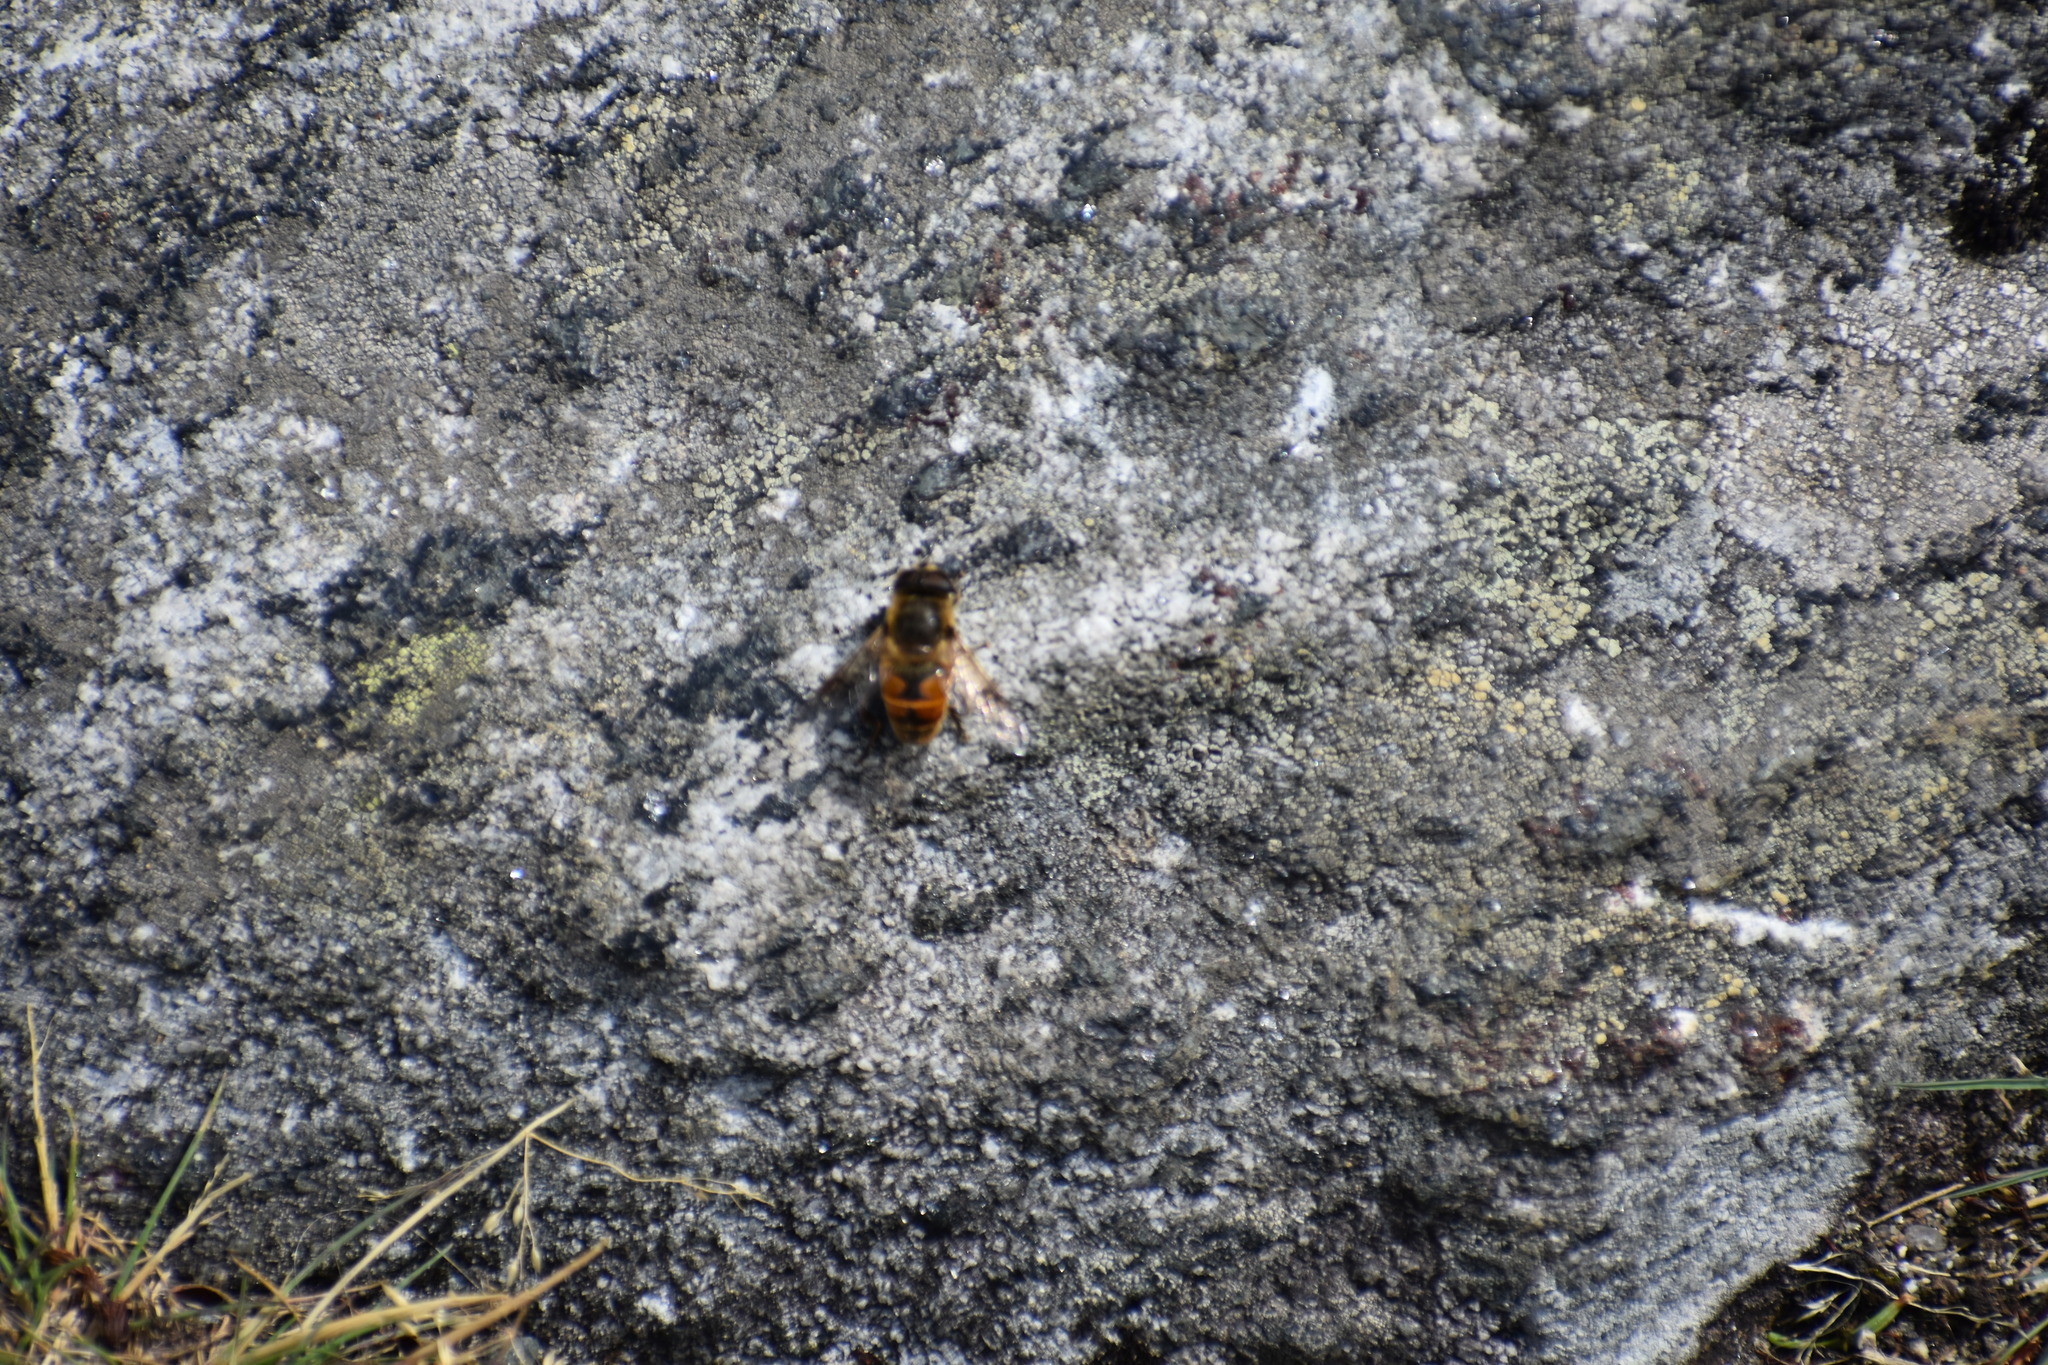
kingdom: Animalia
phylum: Arthropoda
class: Insecta
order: Diptera
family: Syrphidae
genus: Eristalis
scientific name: Eristalis tenax
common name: Drone fly
